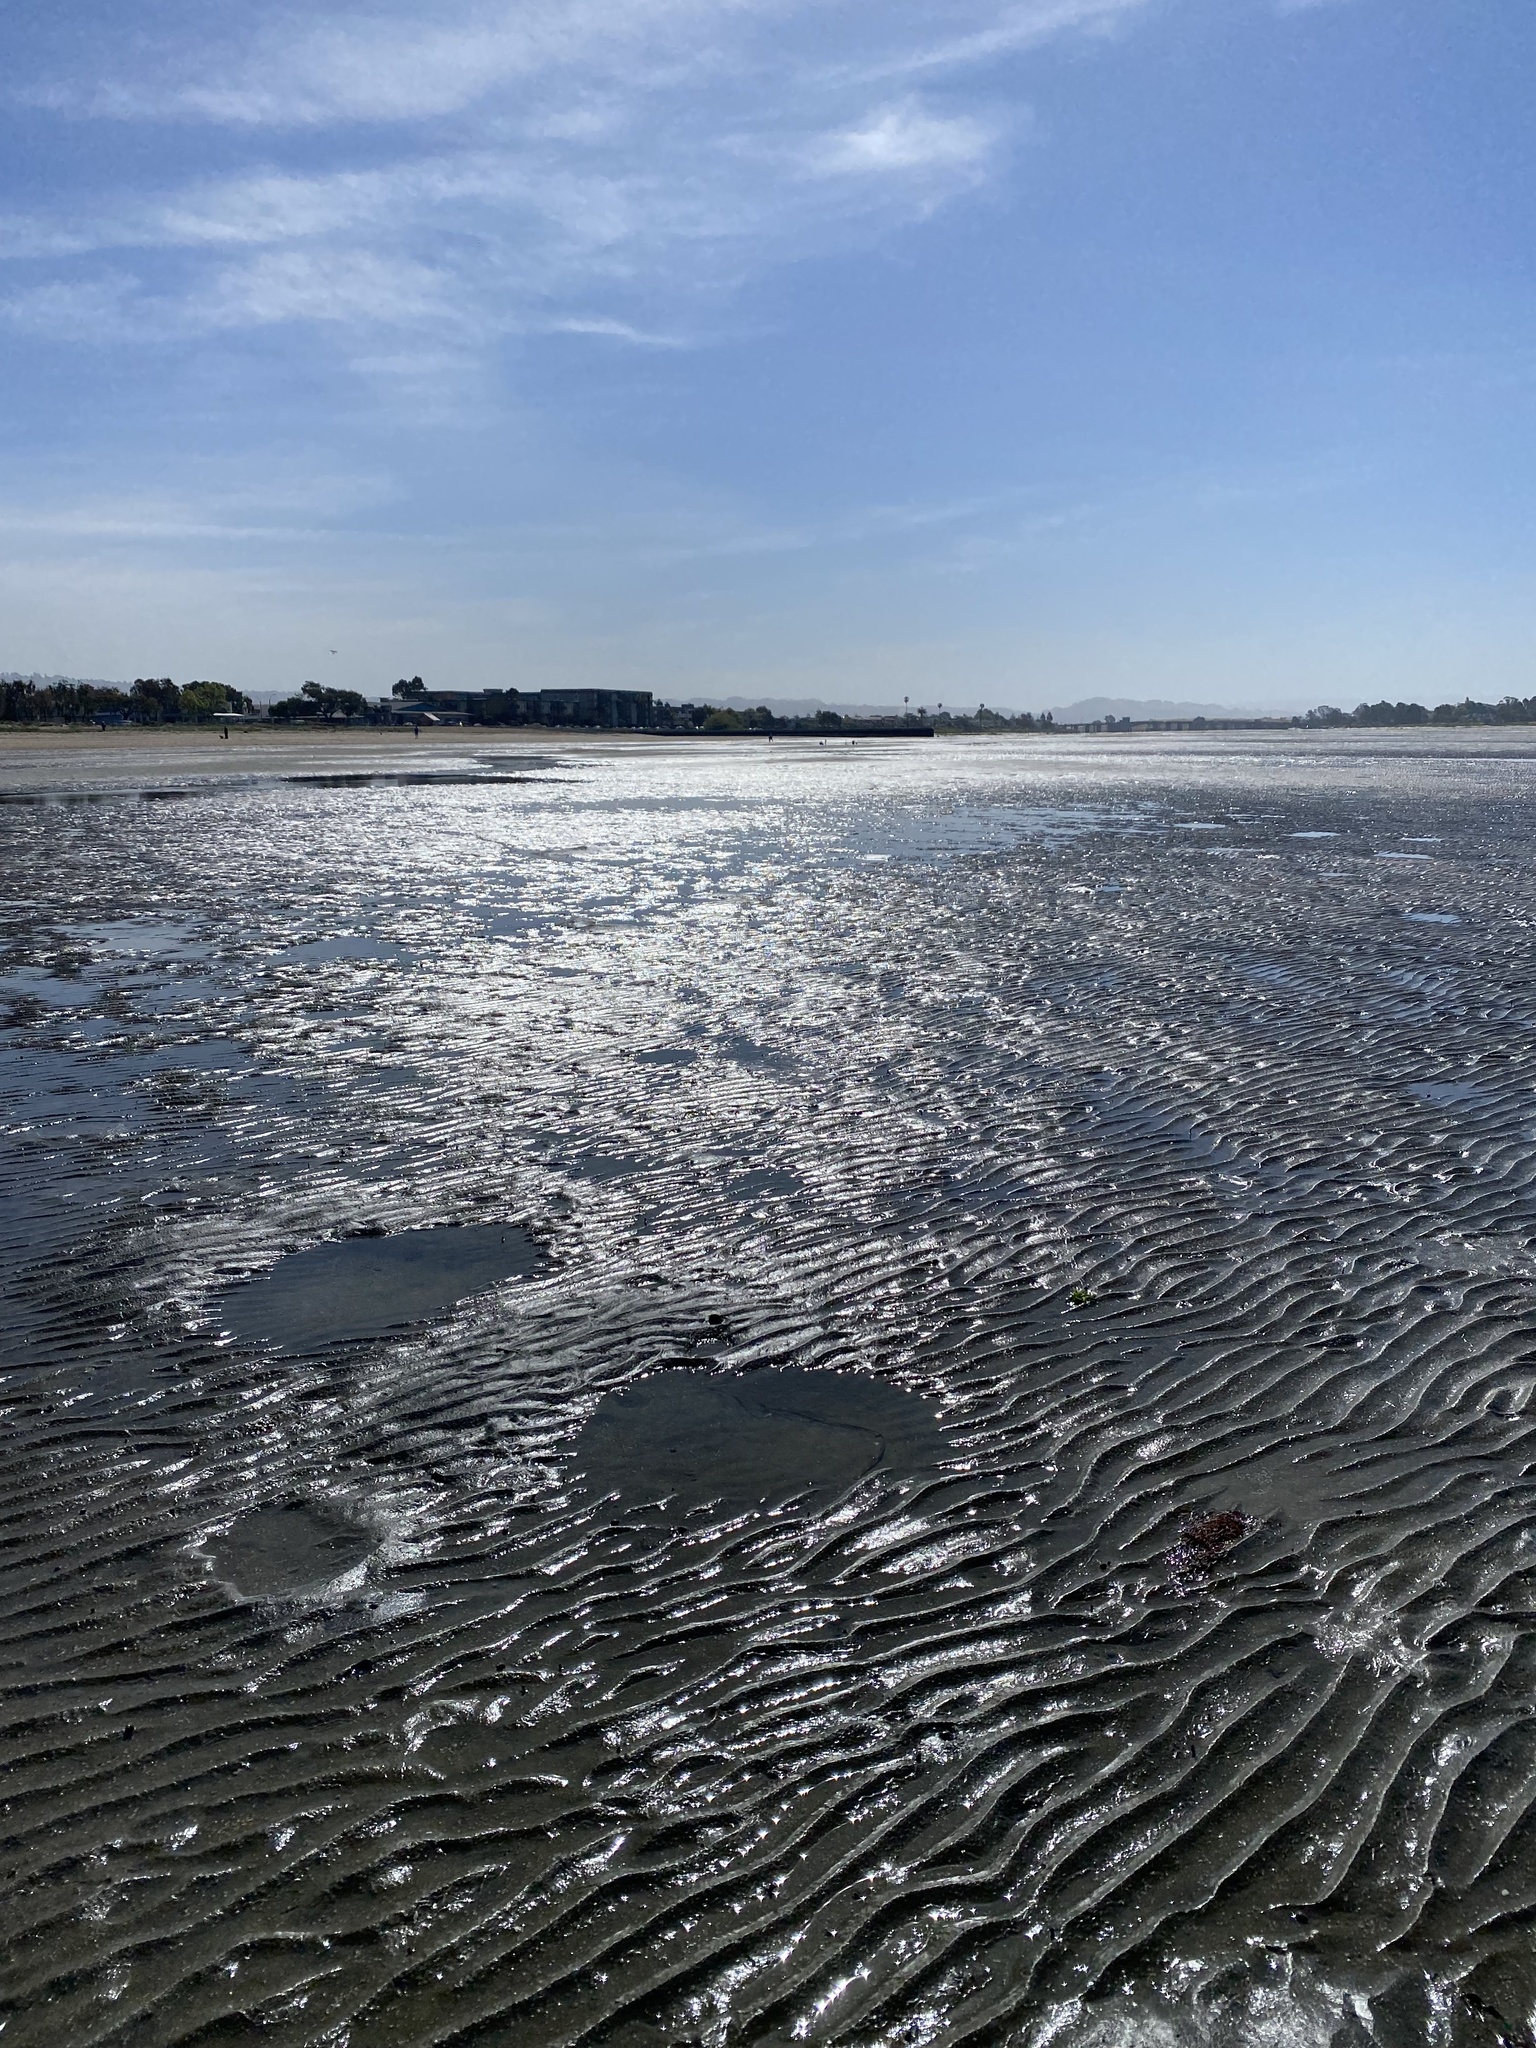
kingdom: Animalia
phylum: Cnidaria
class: Anthozoa
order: Actiniaria
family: Andvakiidae
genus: Flosmaris
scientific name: Flosmaris grandis
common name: White burrowing anemone
